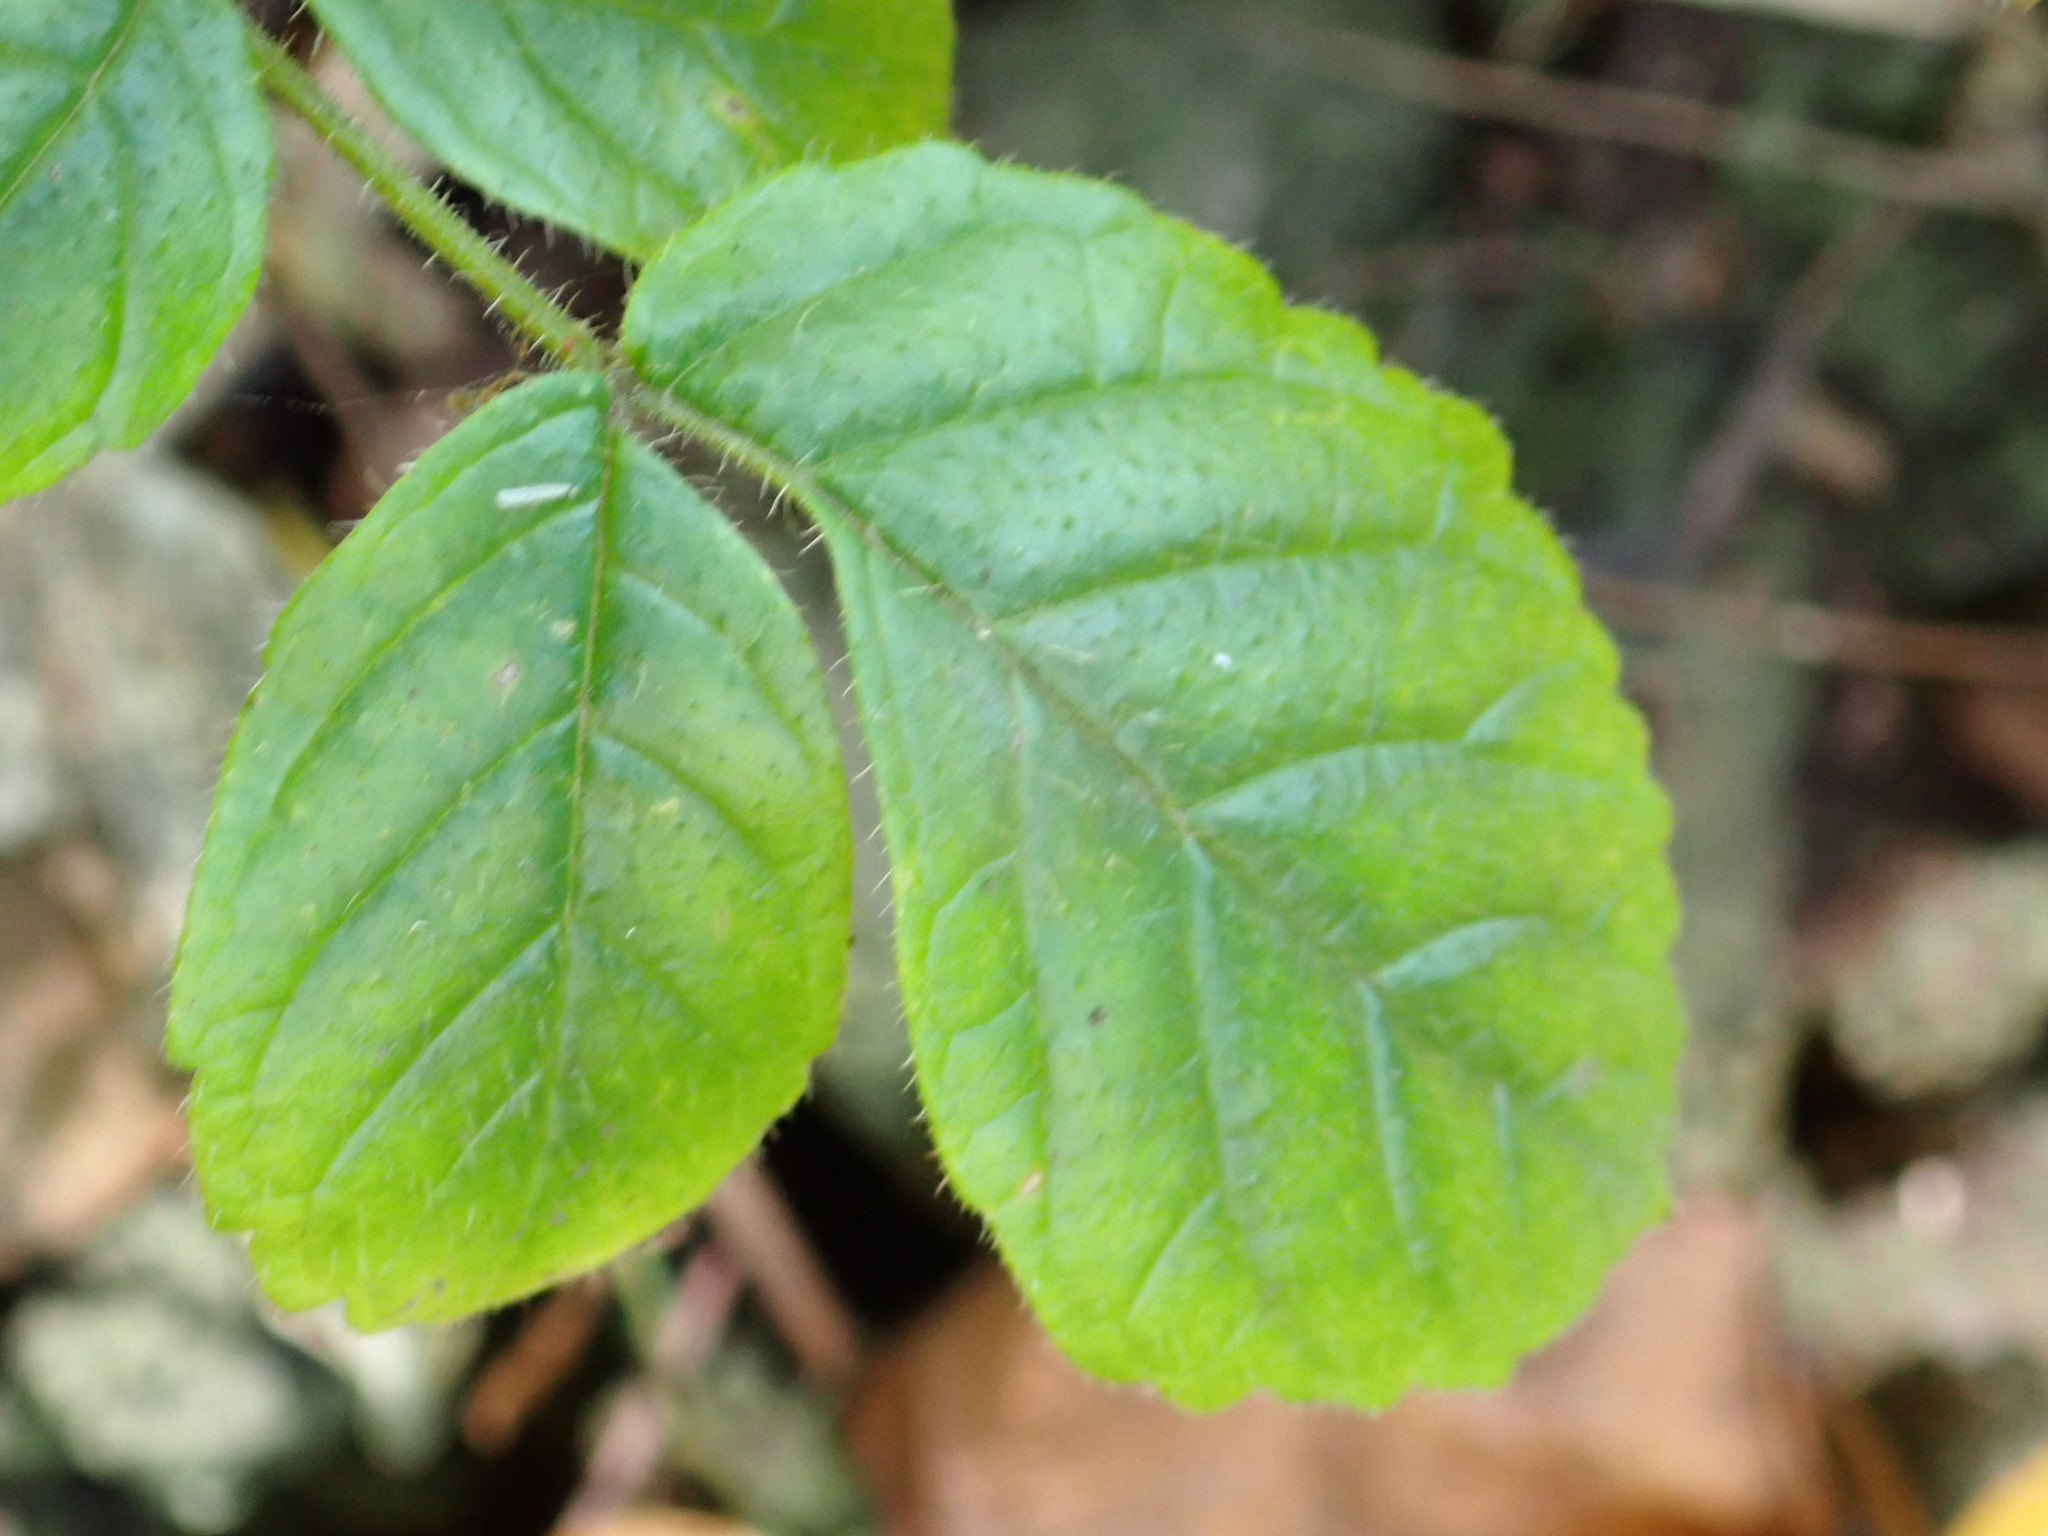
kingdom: Plantae
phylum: Tracheophyta
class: Magnoliopsida
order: Lamiales
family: Bignoniaceae
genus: Spathodea
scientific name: Spathodea campanulata
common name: African tuliptree
